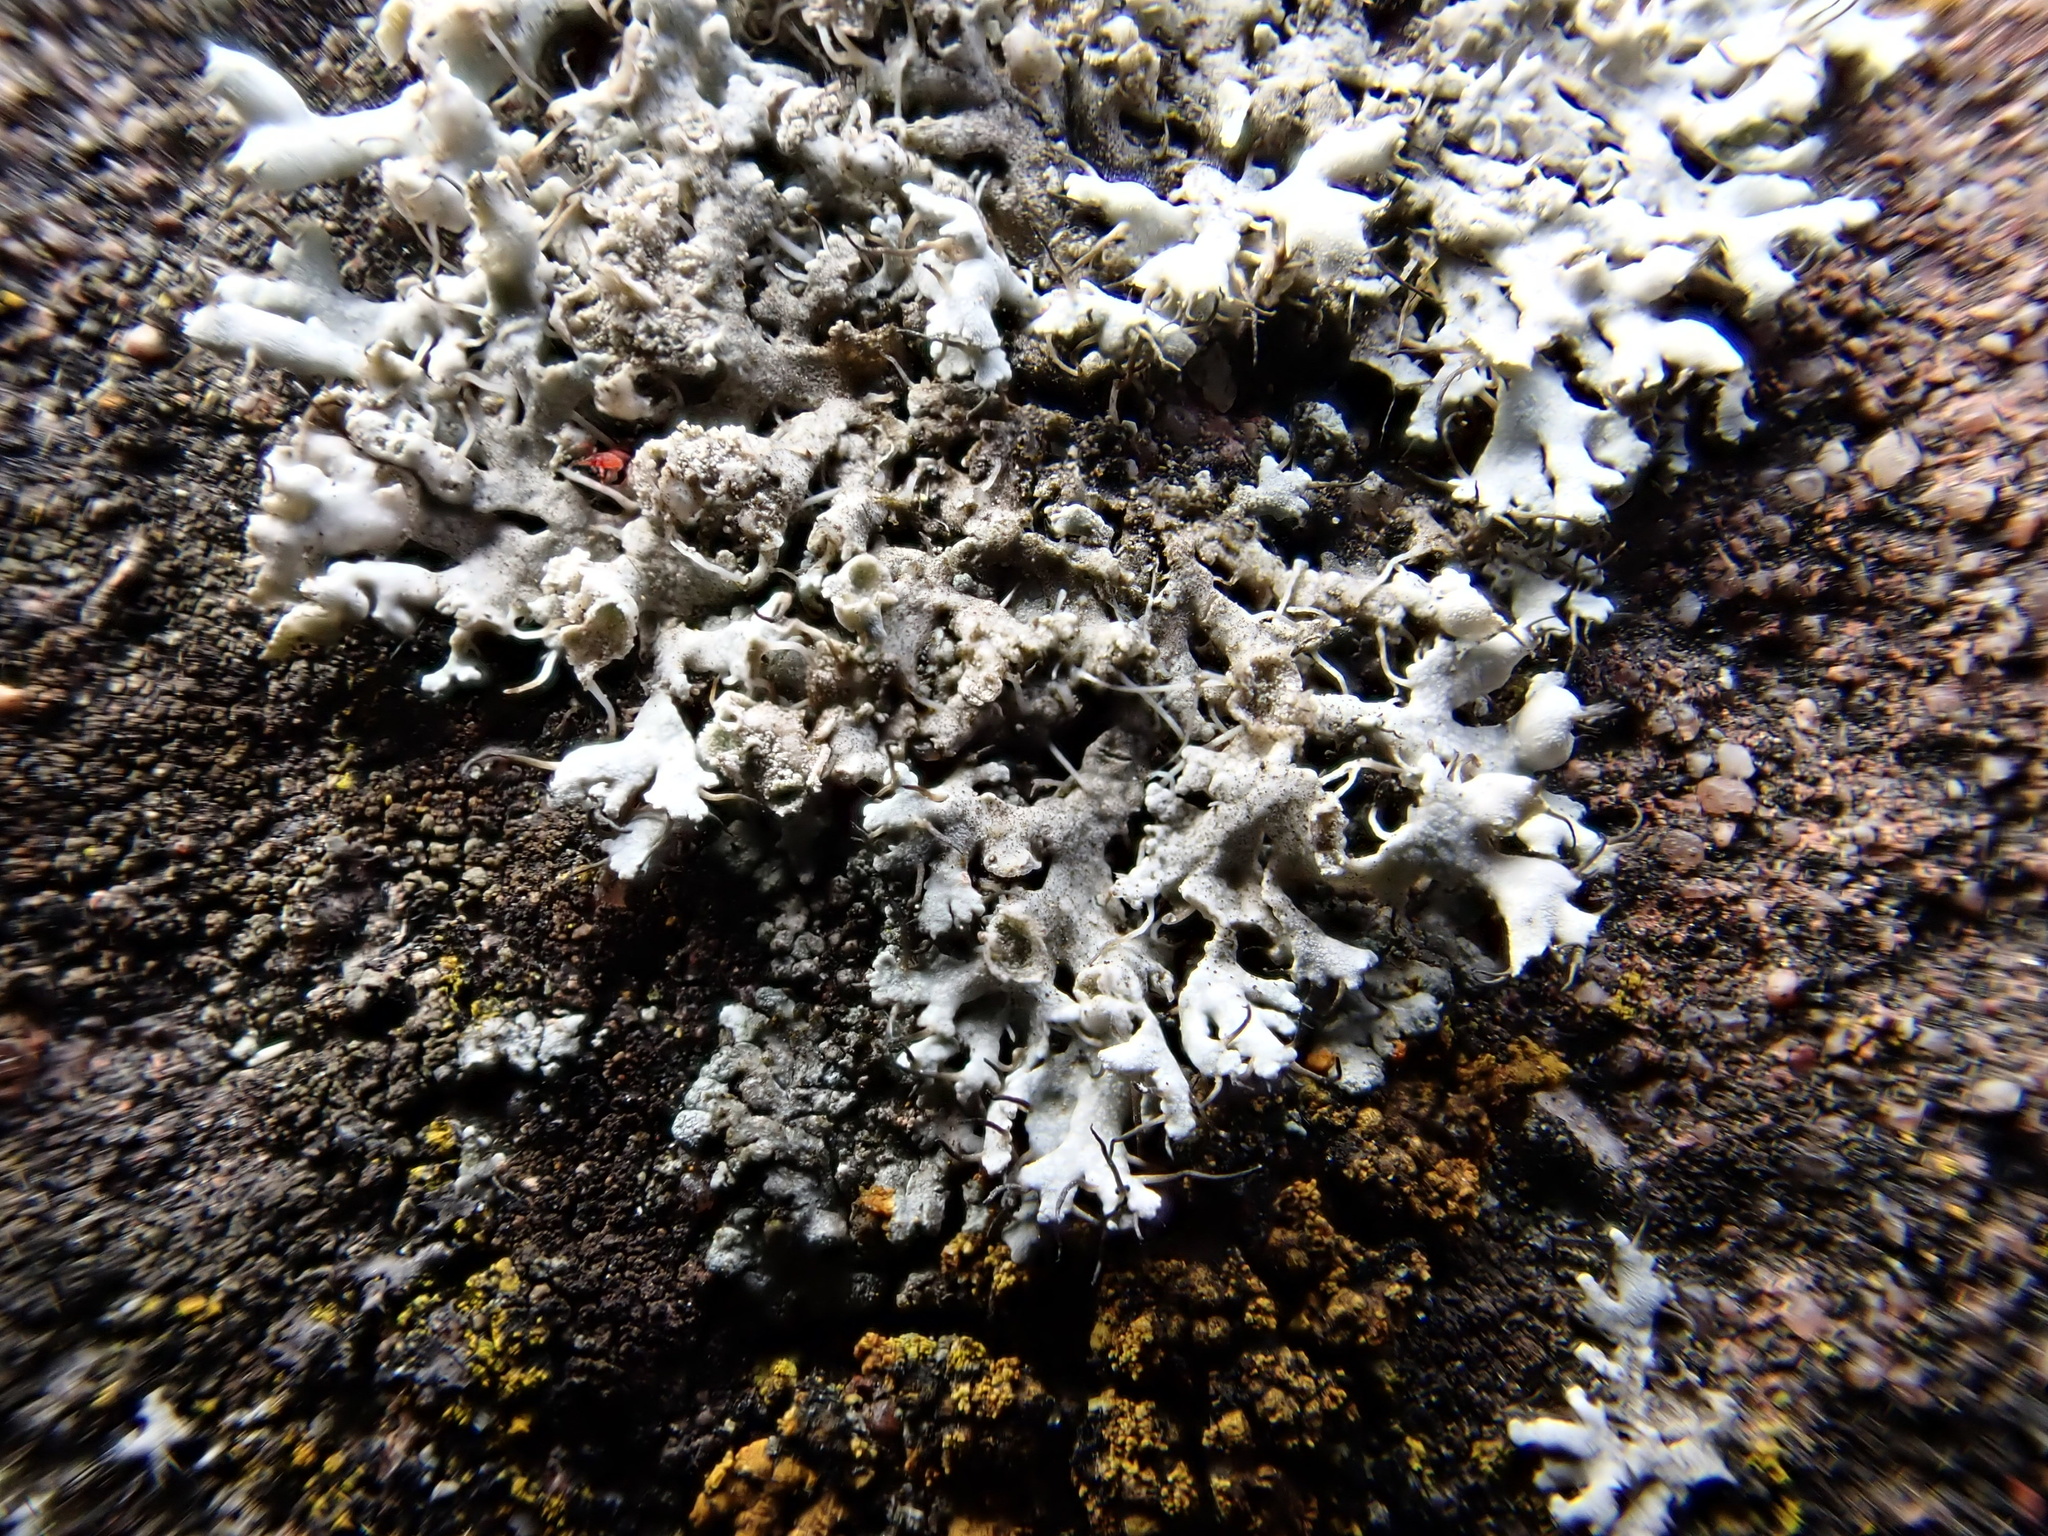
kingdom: Fungi
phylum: Ascomycota
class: Lecanoromycetes
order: Caliciales
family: Physciaceae
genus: Physcia
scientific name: Physcia adscendens
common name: Hooded rosette lichen
